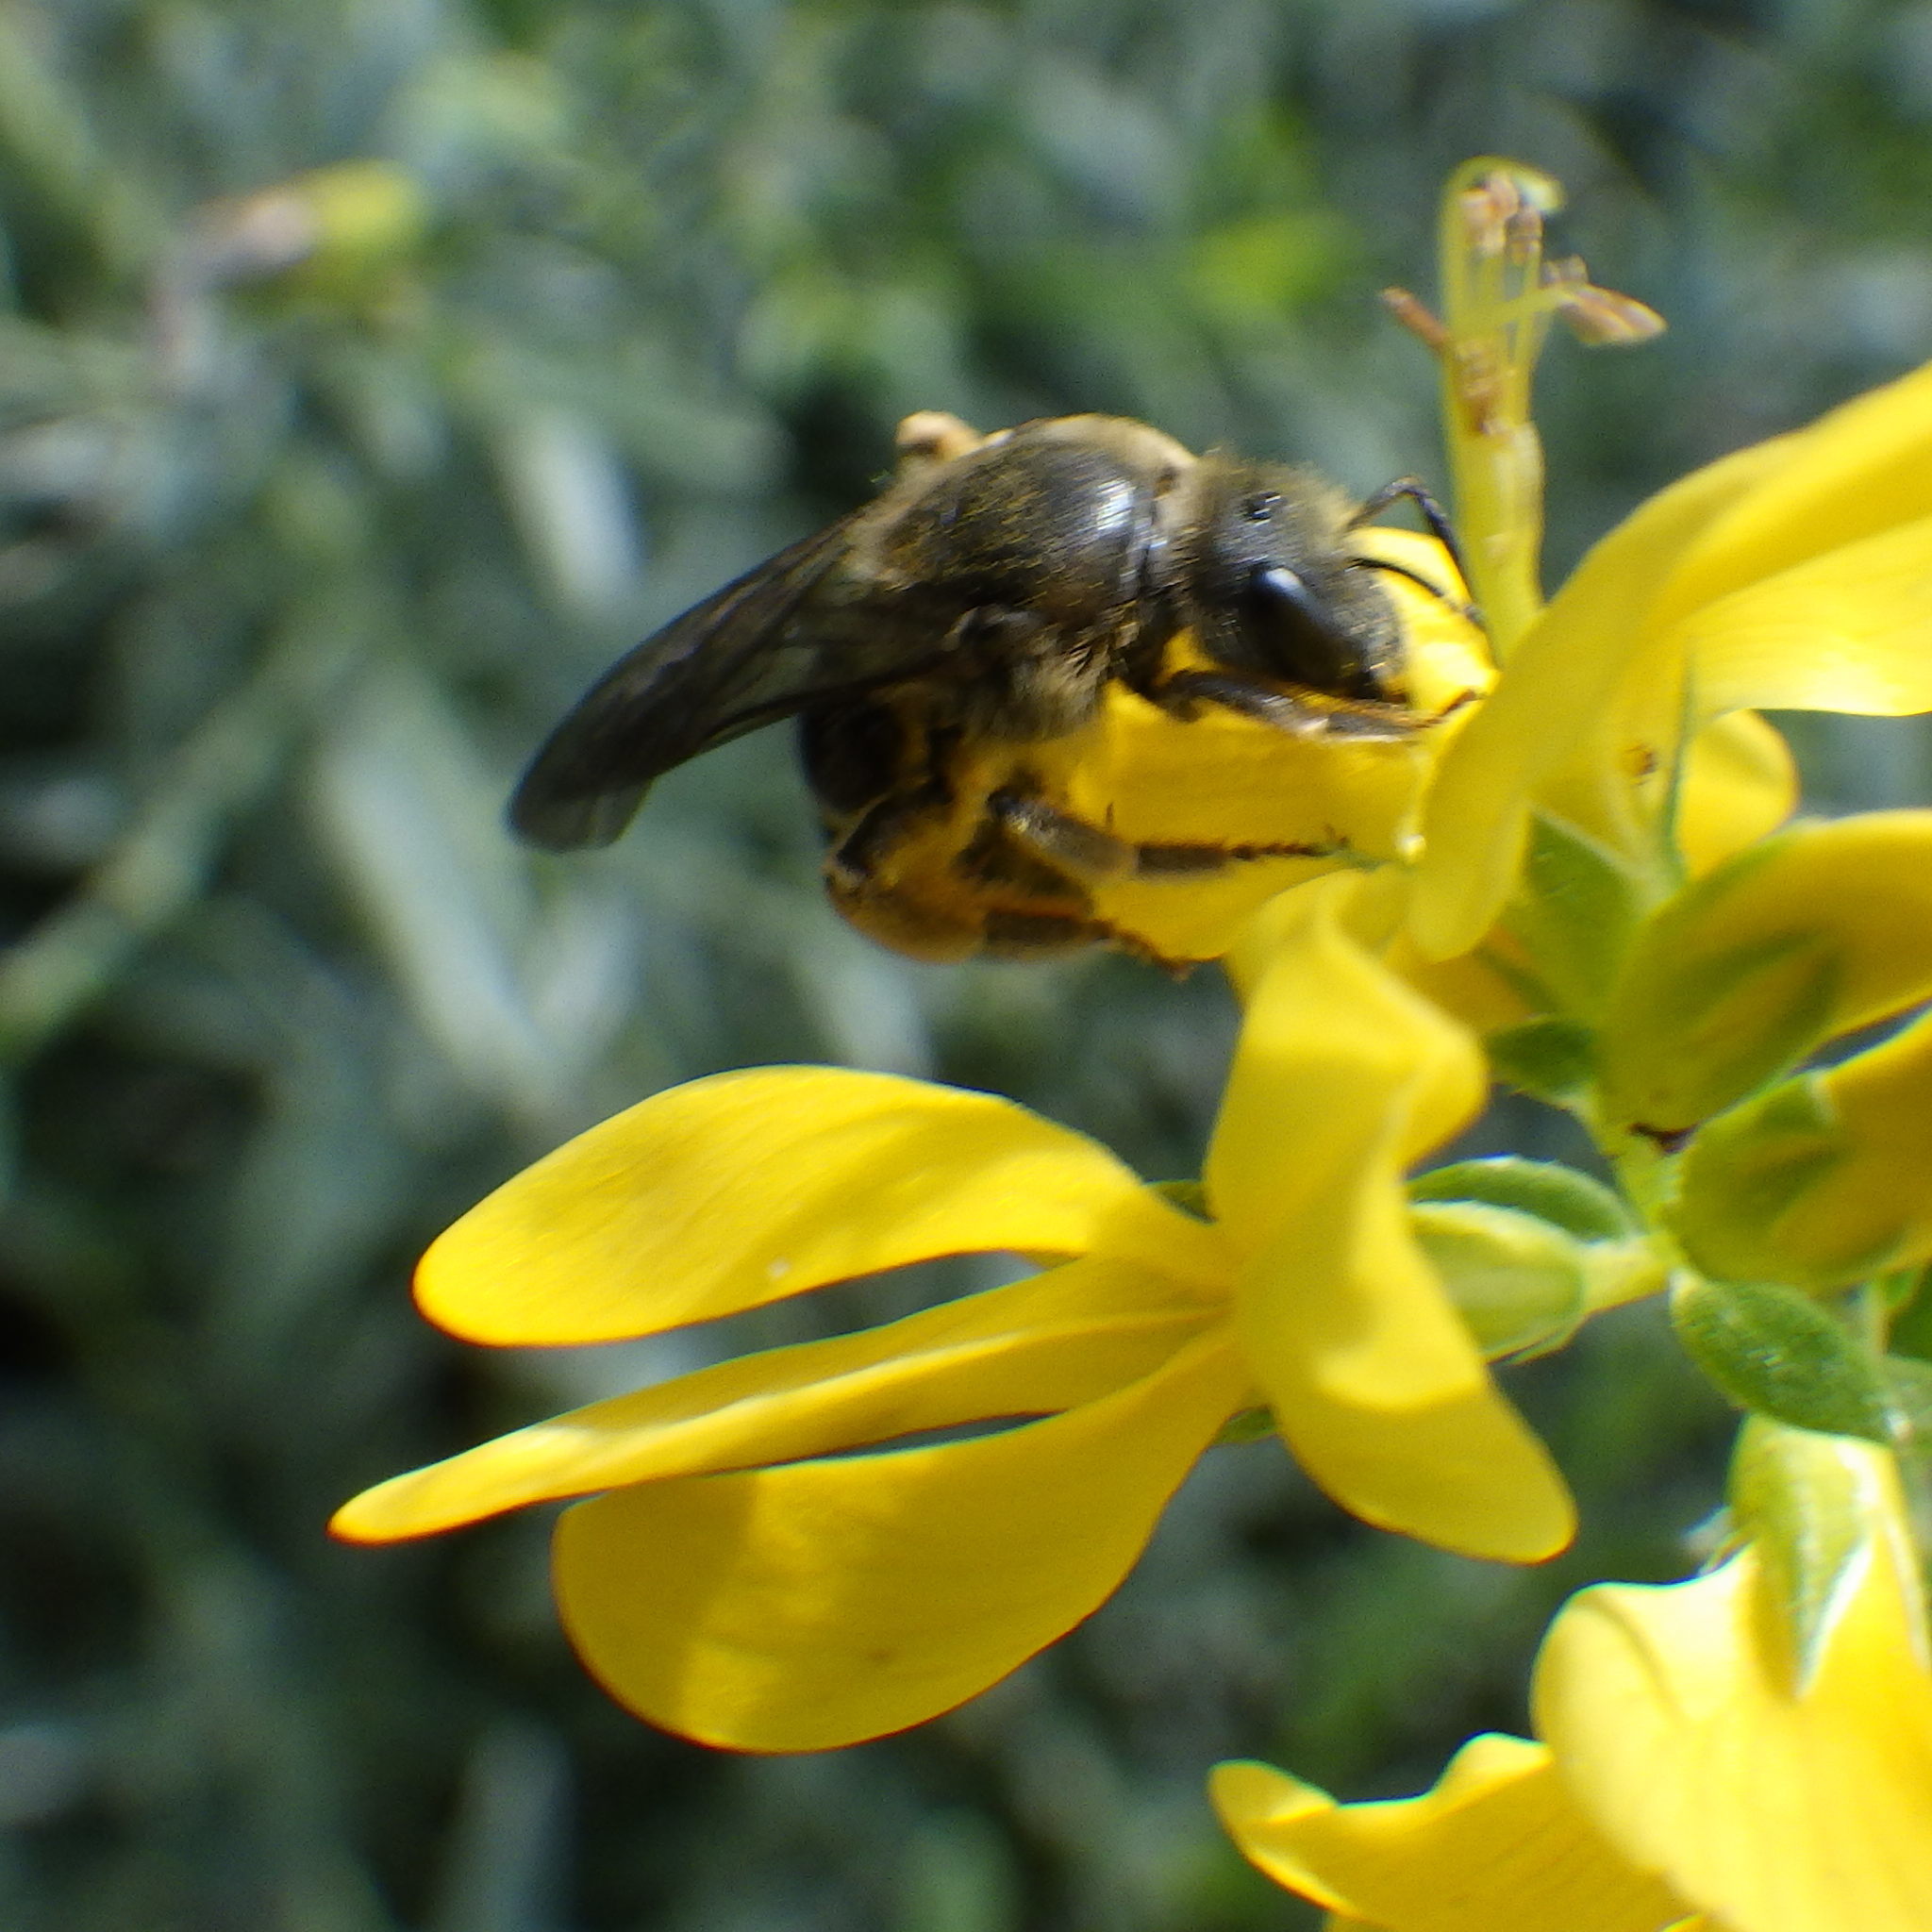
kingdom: Animalia
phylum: Arthropoda
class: Insecta
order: Hymenoptera
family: Halictidae
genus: Halictus
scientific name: Halictus rubicundus
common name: Orange-legged furrow bee
